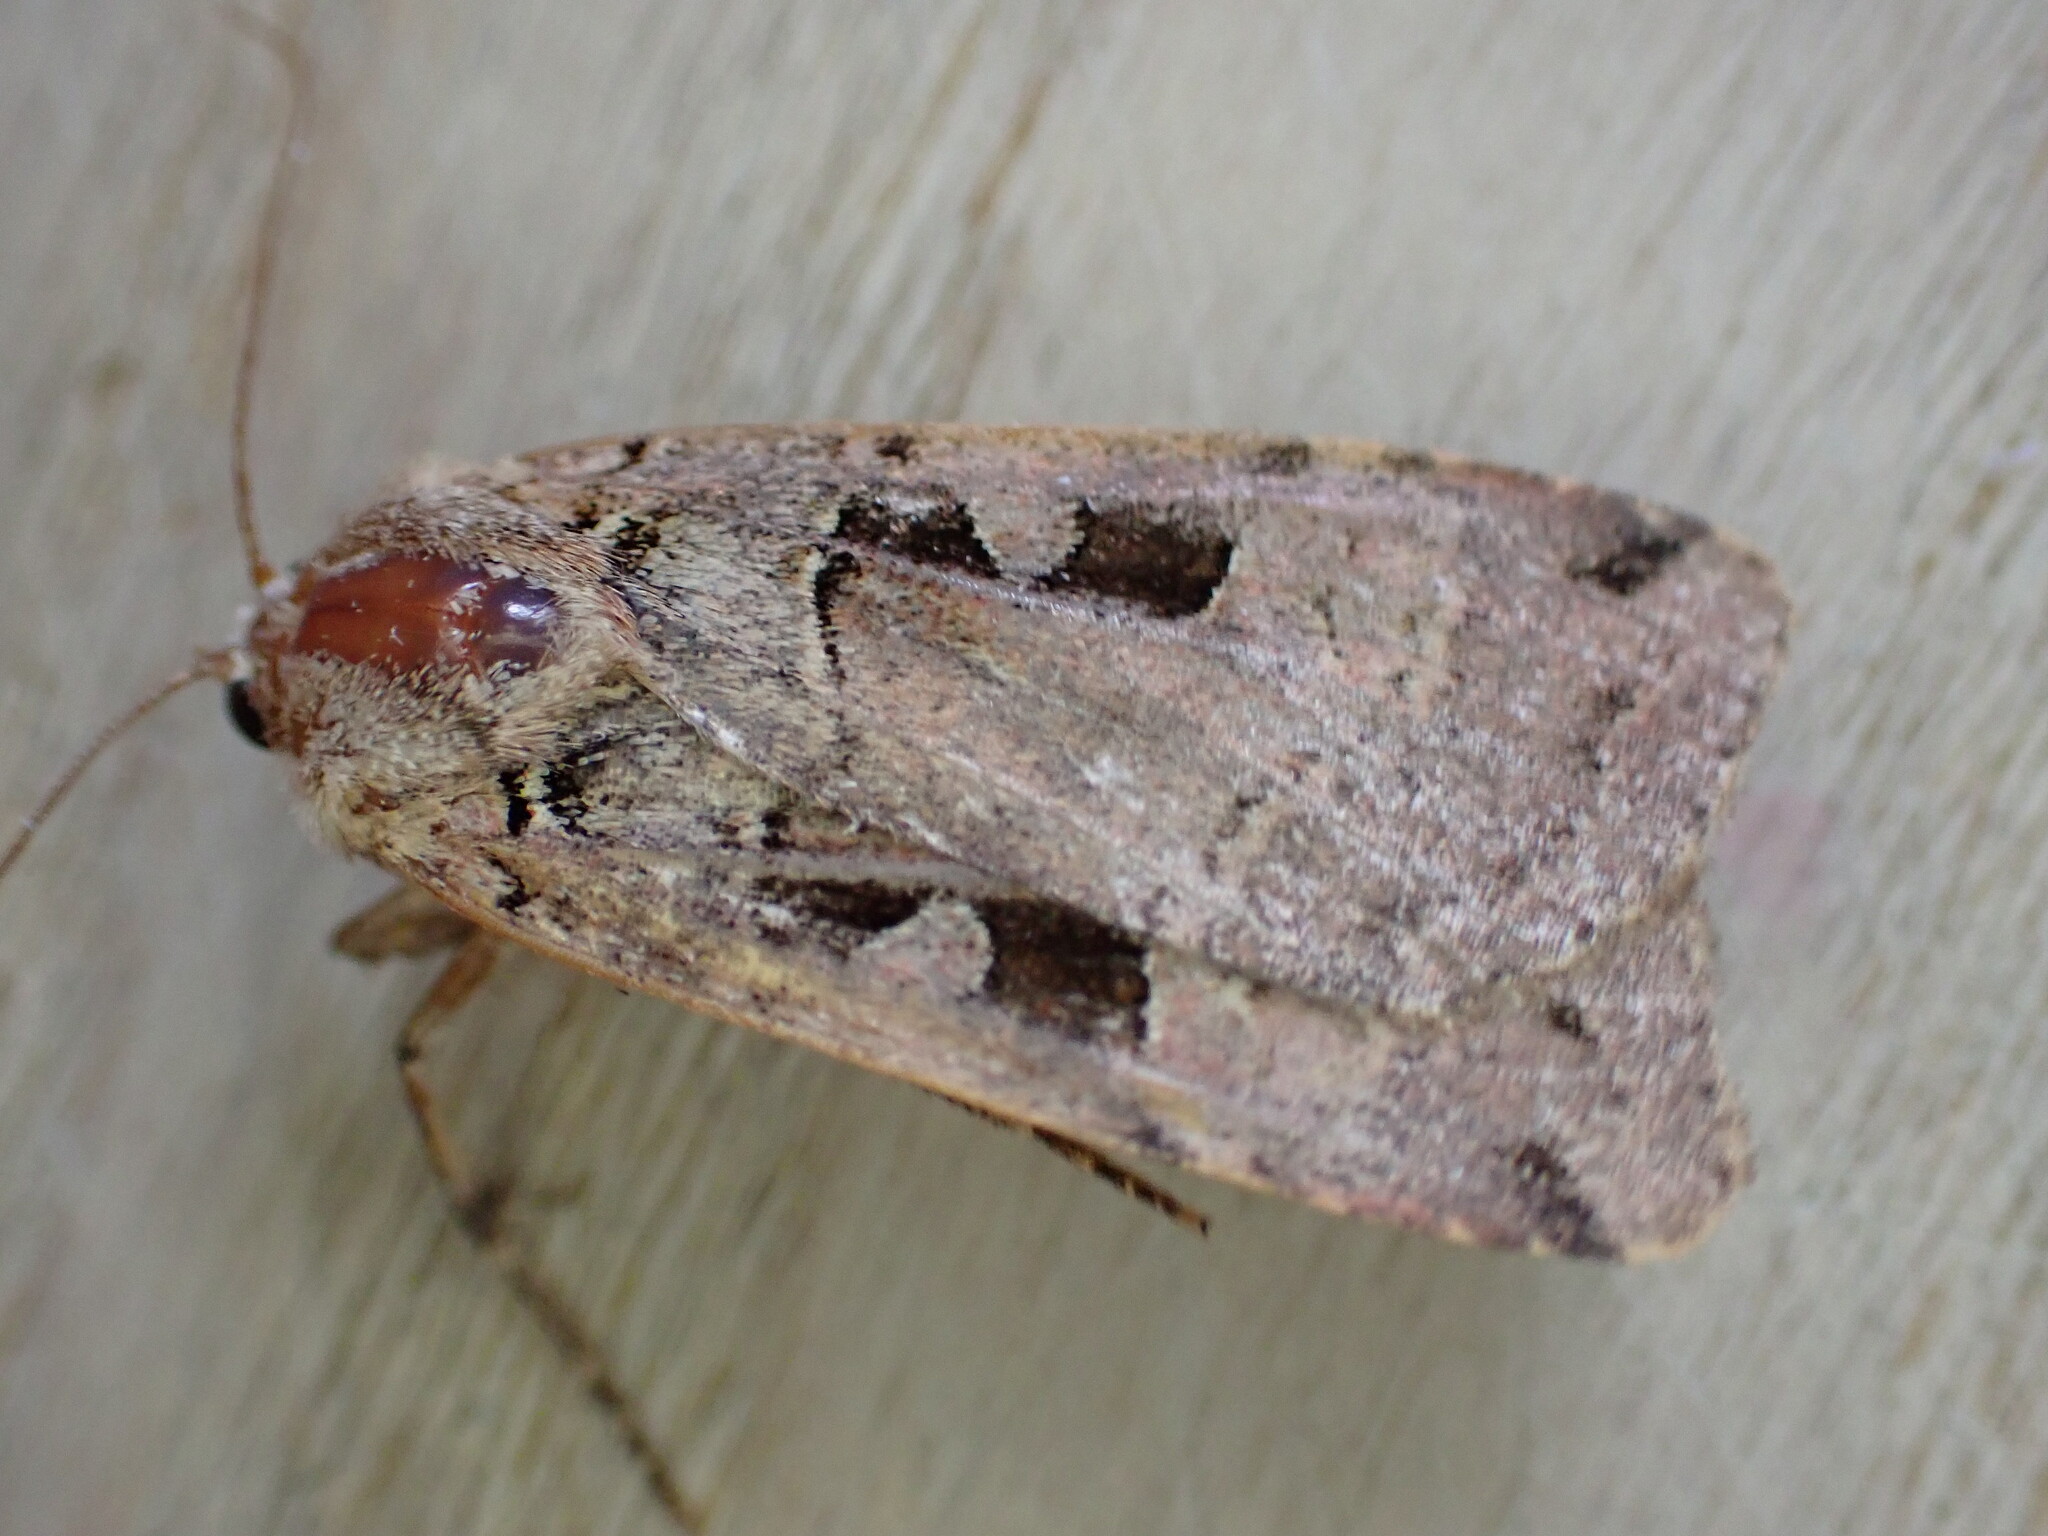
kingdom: Animalia
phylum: Arthropoda
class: Insecta
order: Lepidoptera
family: Noctuidae
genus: Xestia
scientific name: Xestia triangulum
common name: Double square-spot
